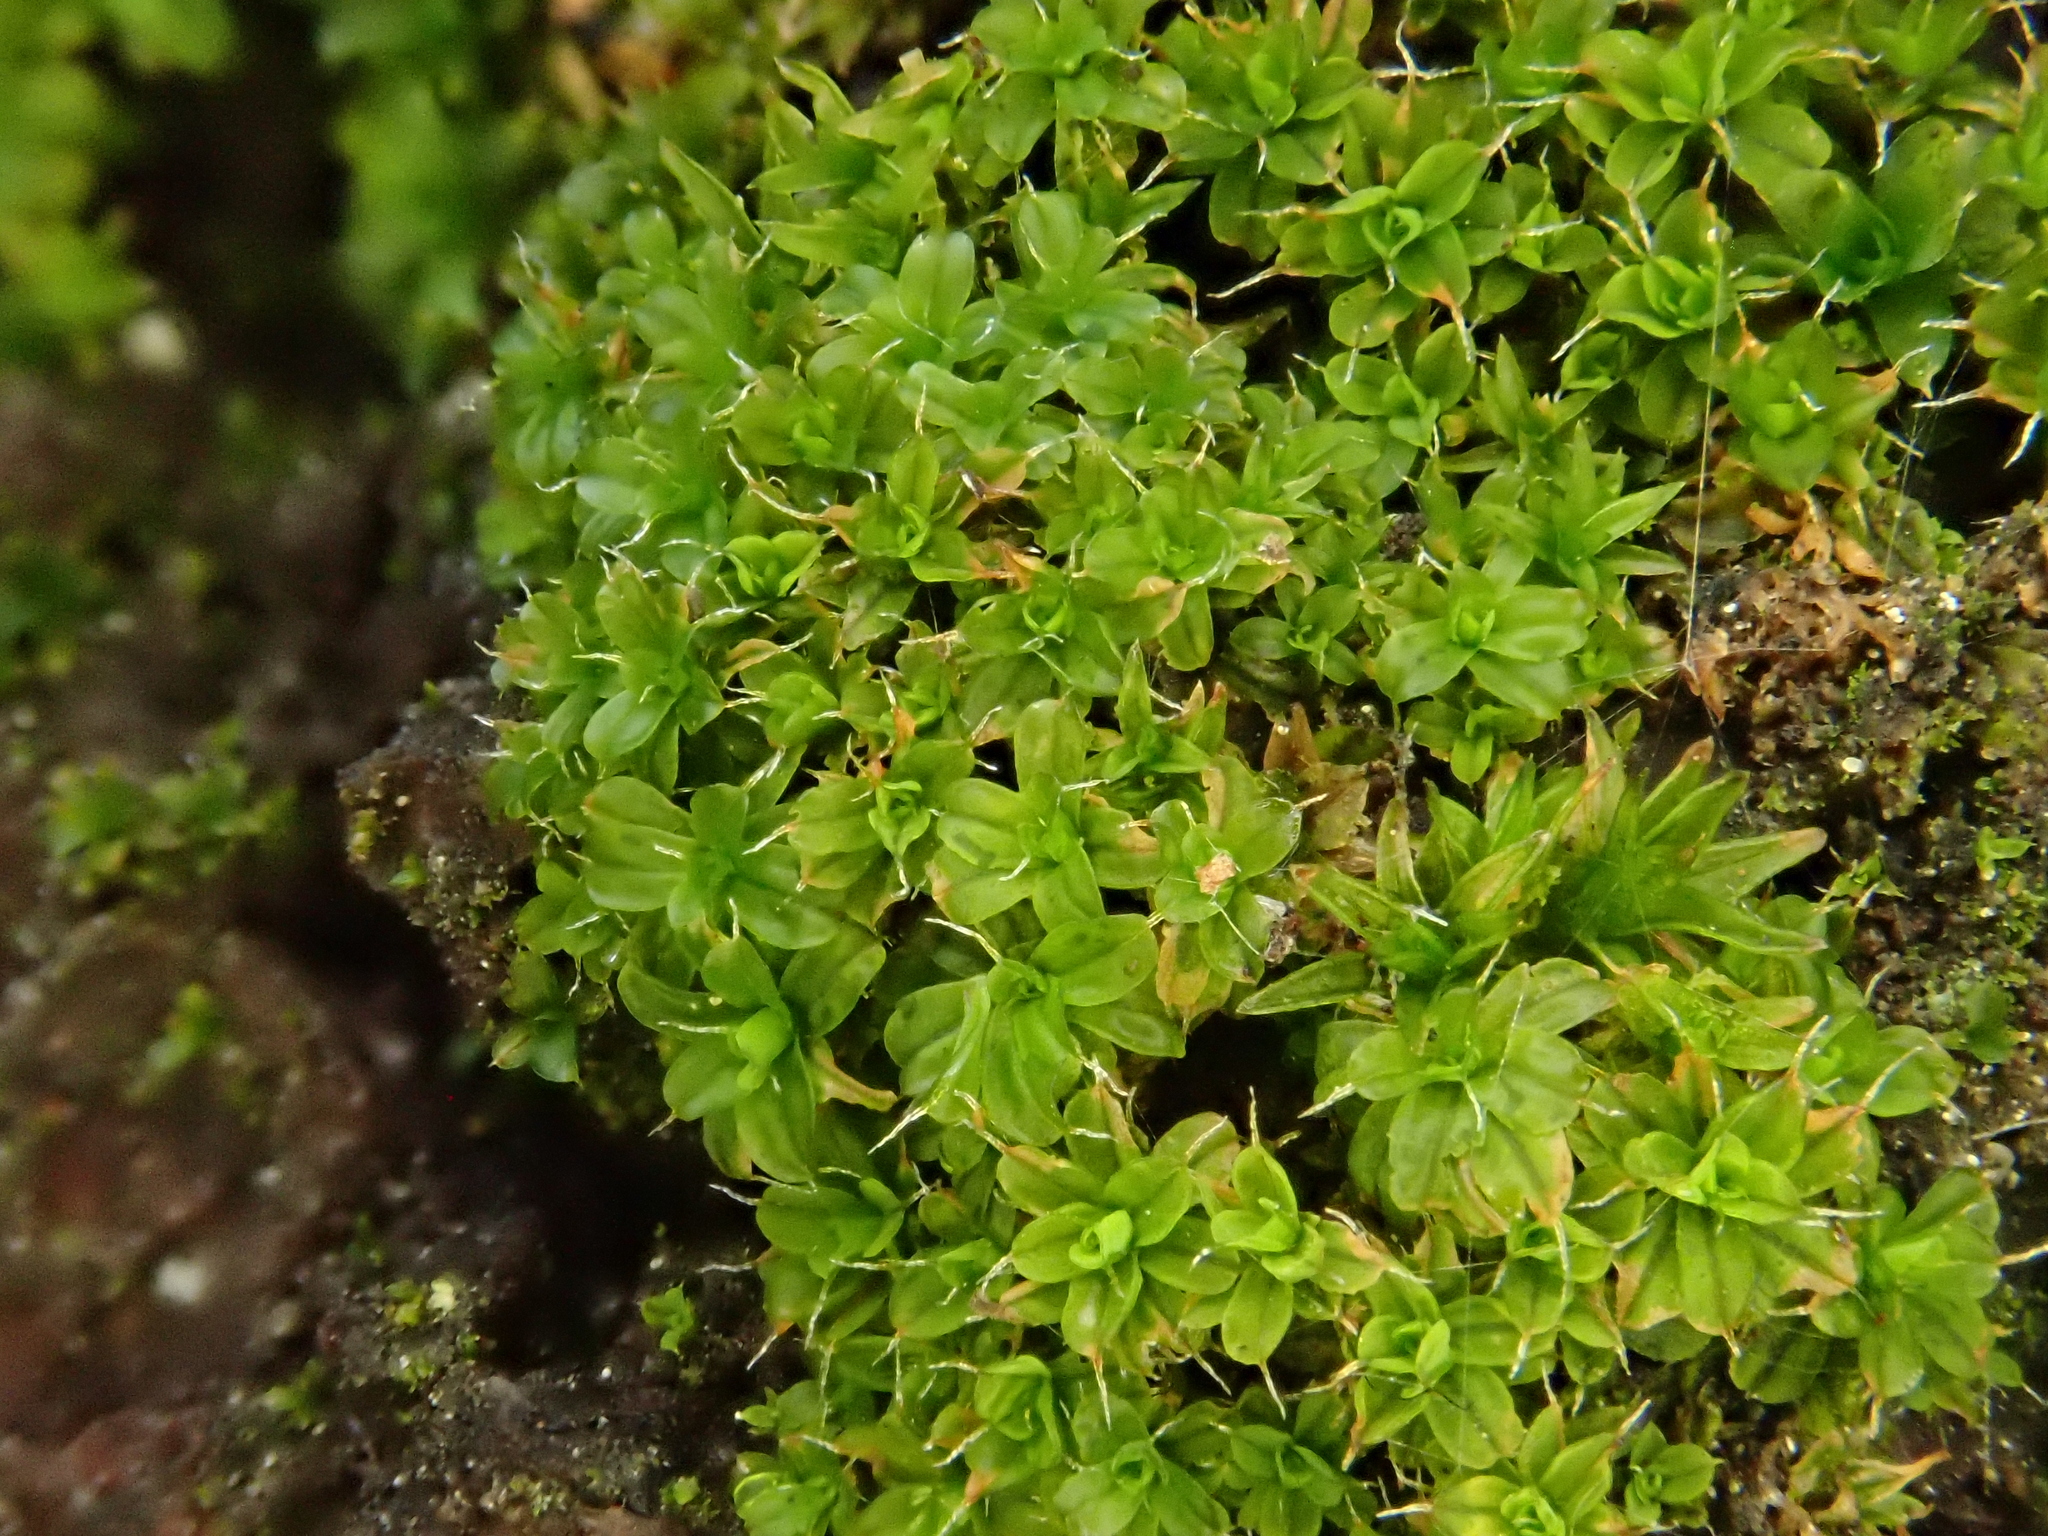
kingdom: Plantae
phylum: Bryophyta
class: Bryopsida
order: Pottiales
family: Pottiaceae
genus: Syntrichia
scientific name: Syntrichia virescens
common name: Lesser screw-moss
